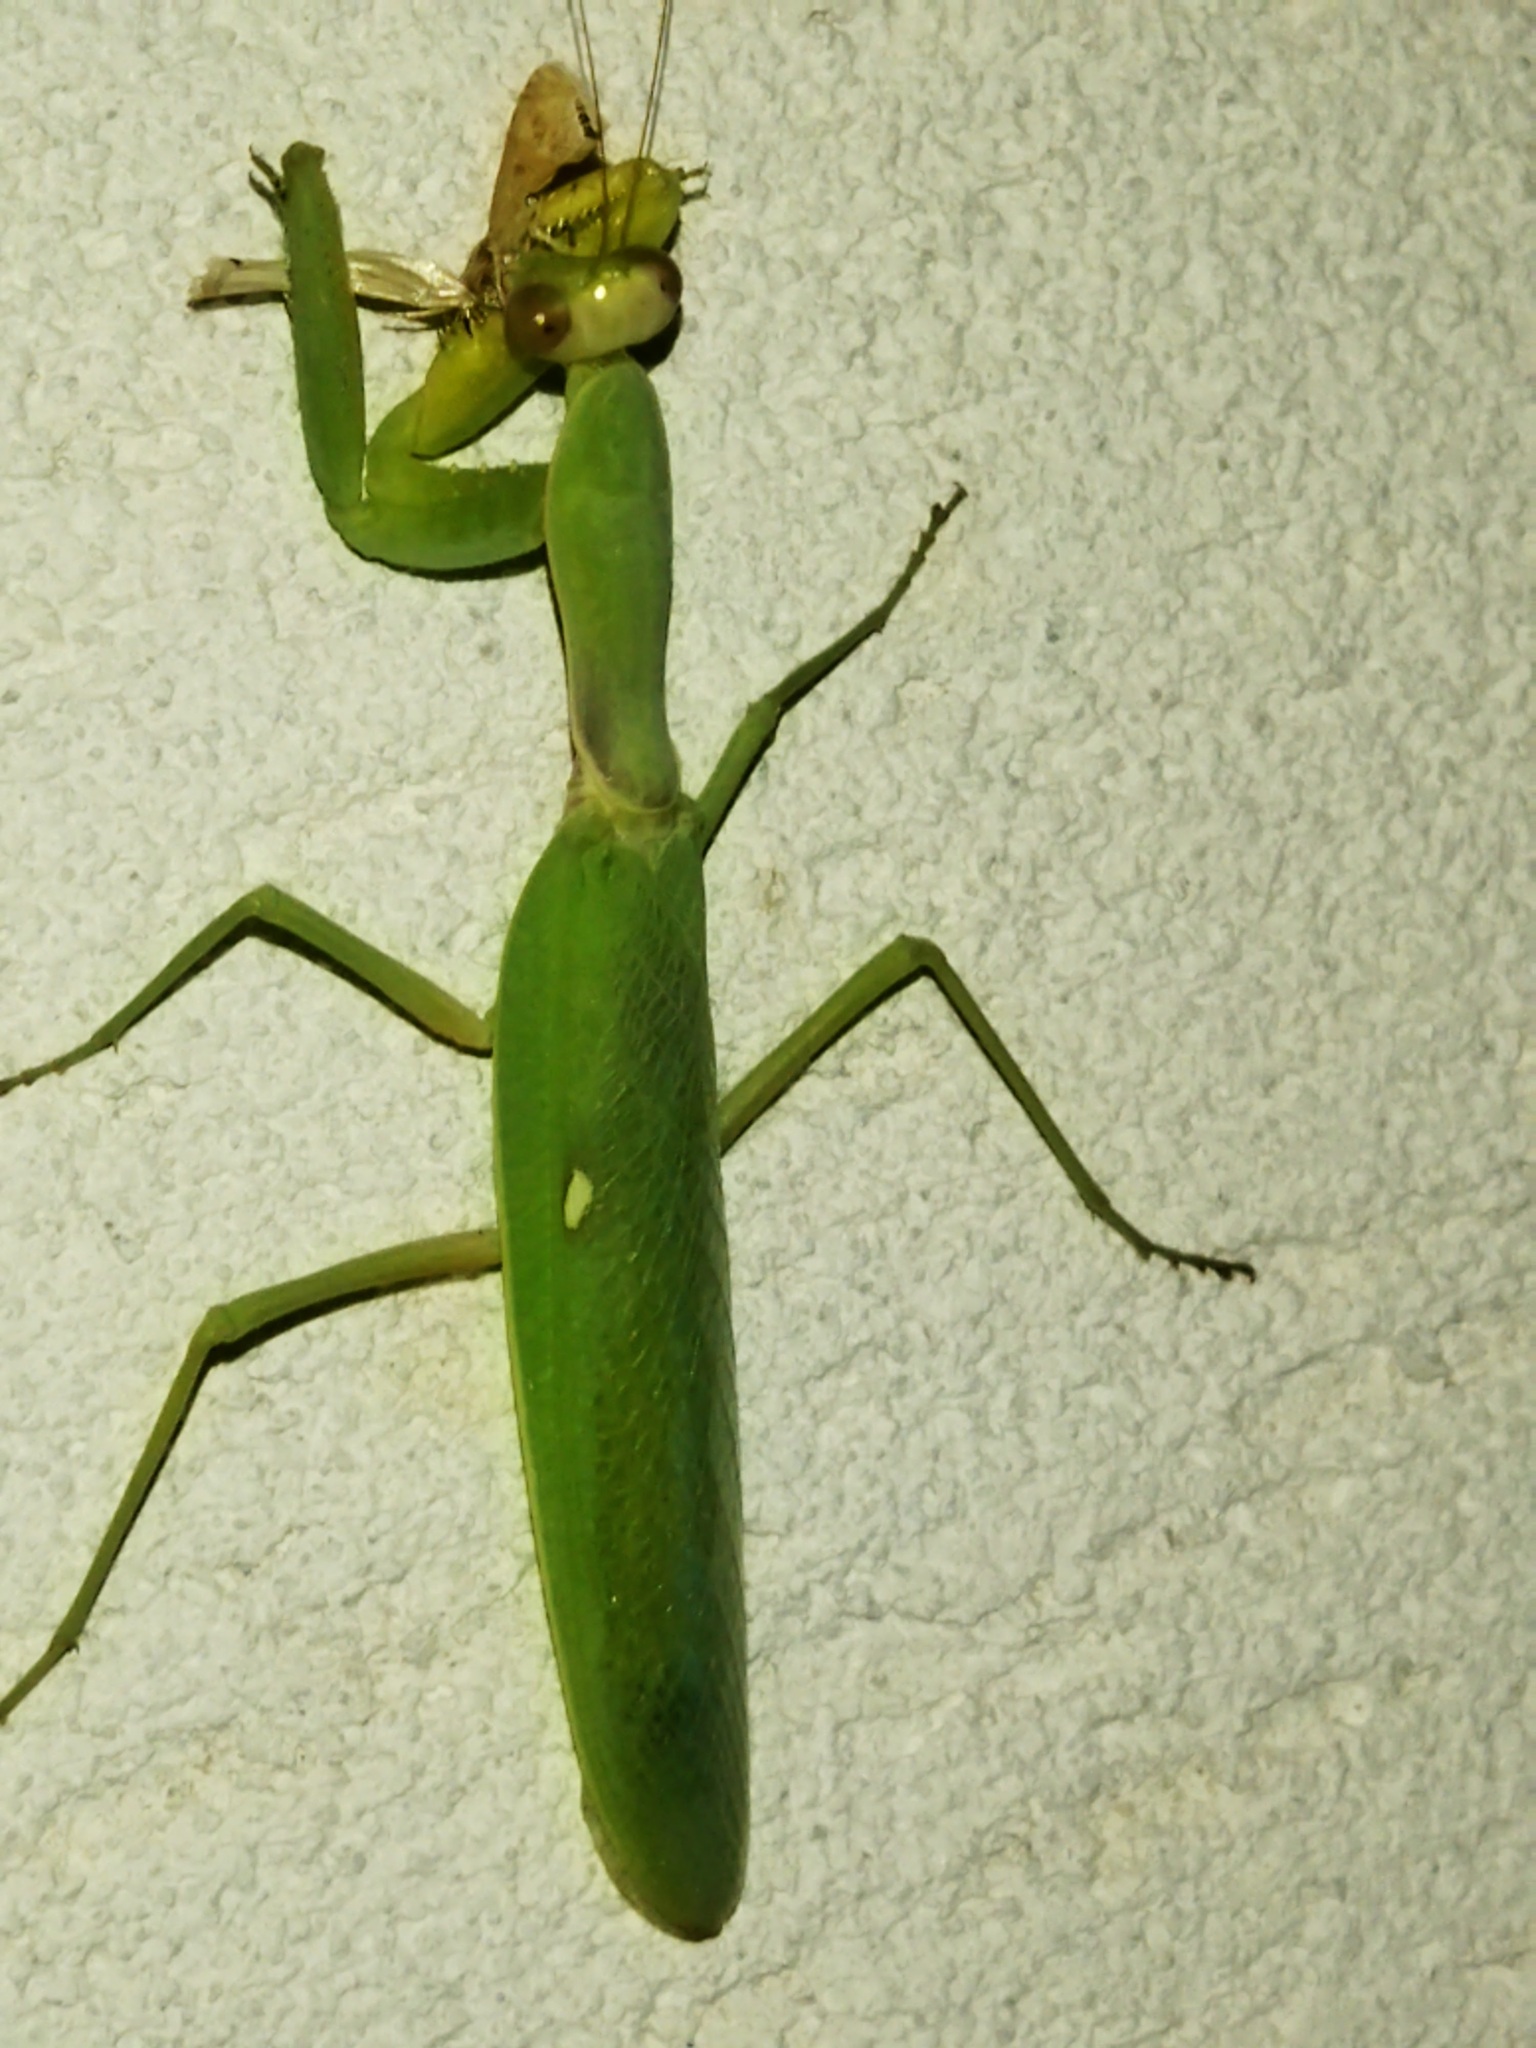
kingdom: Animalia
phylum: Arthropoda
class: Insecta
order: Mantodea
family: Mantidae
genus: Hierodula
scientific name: Hierodula transcaucasica
